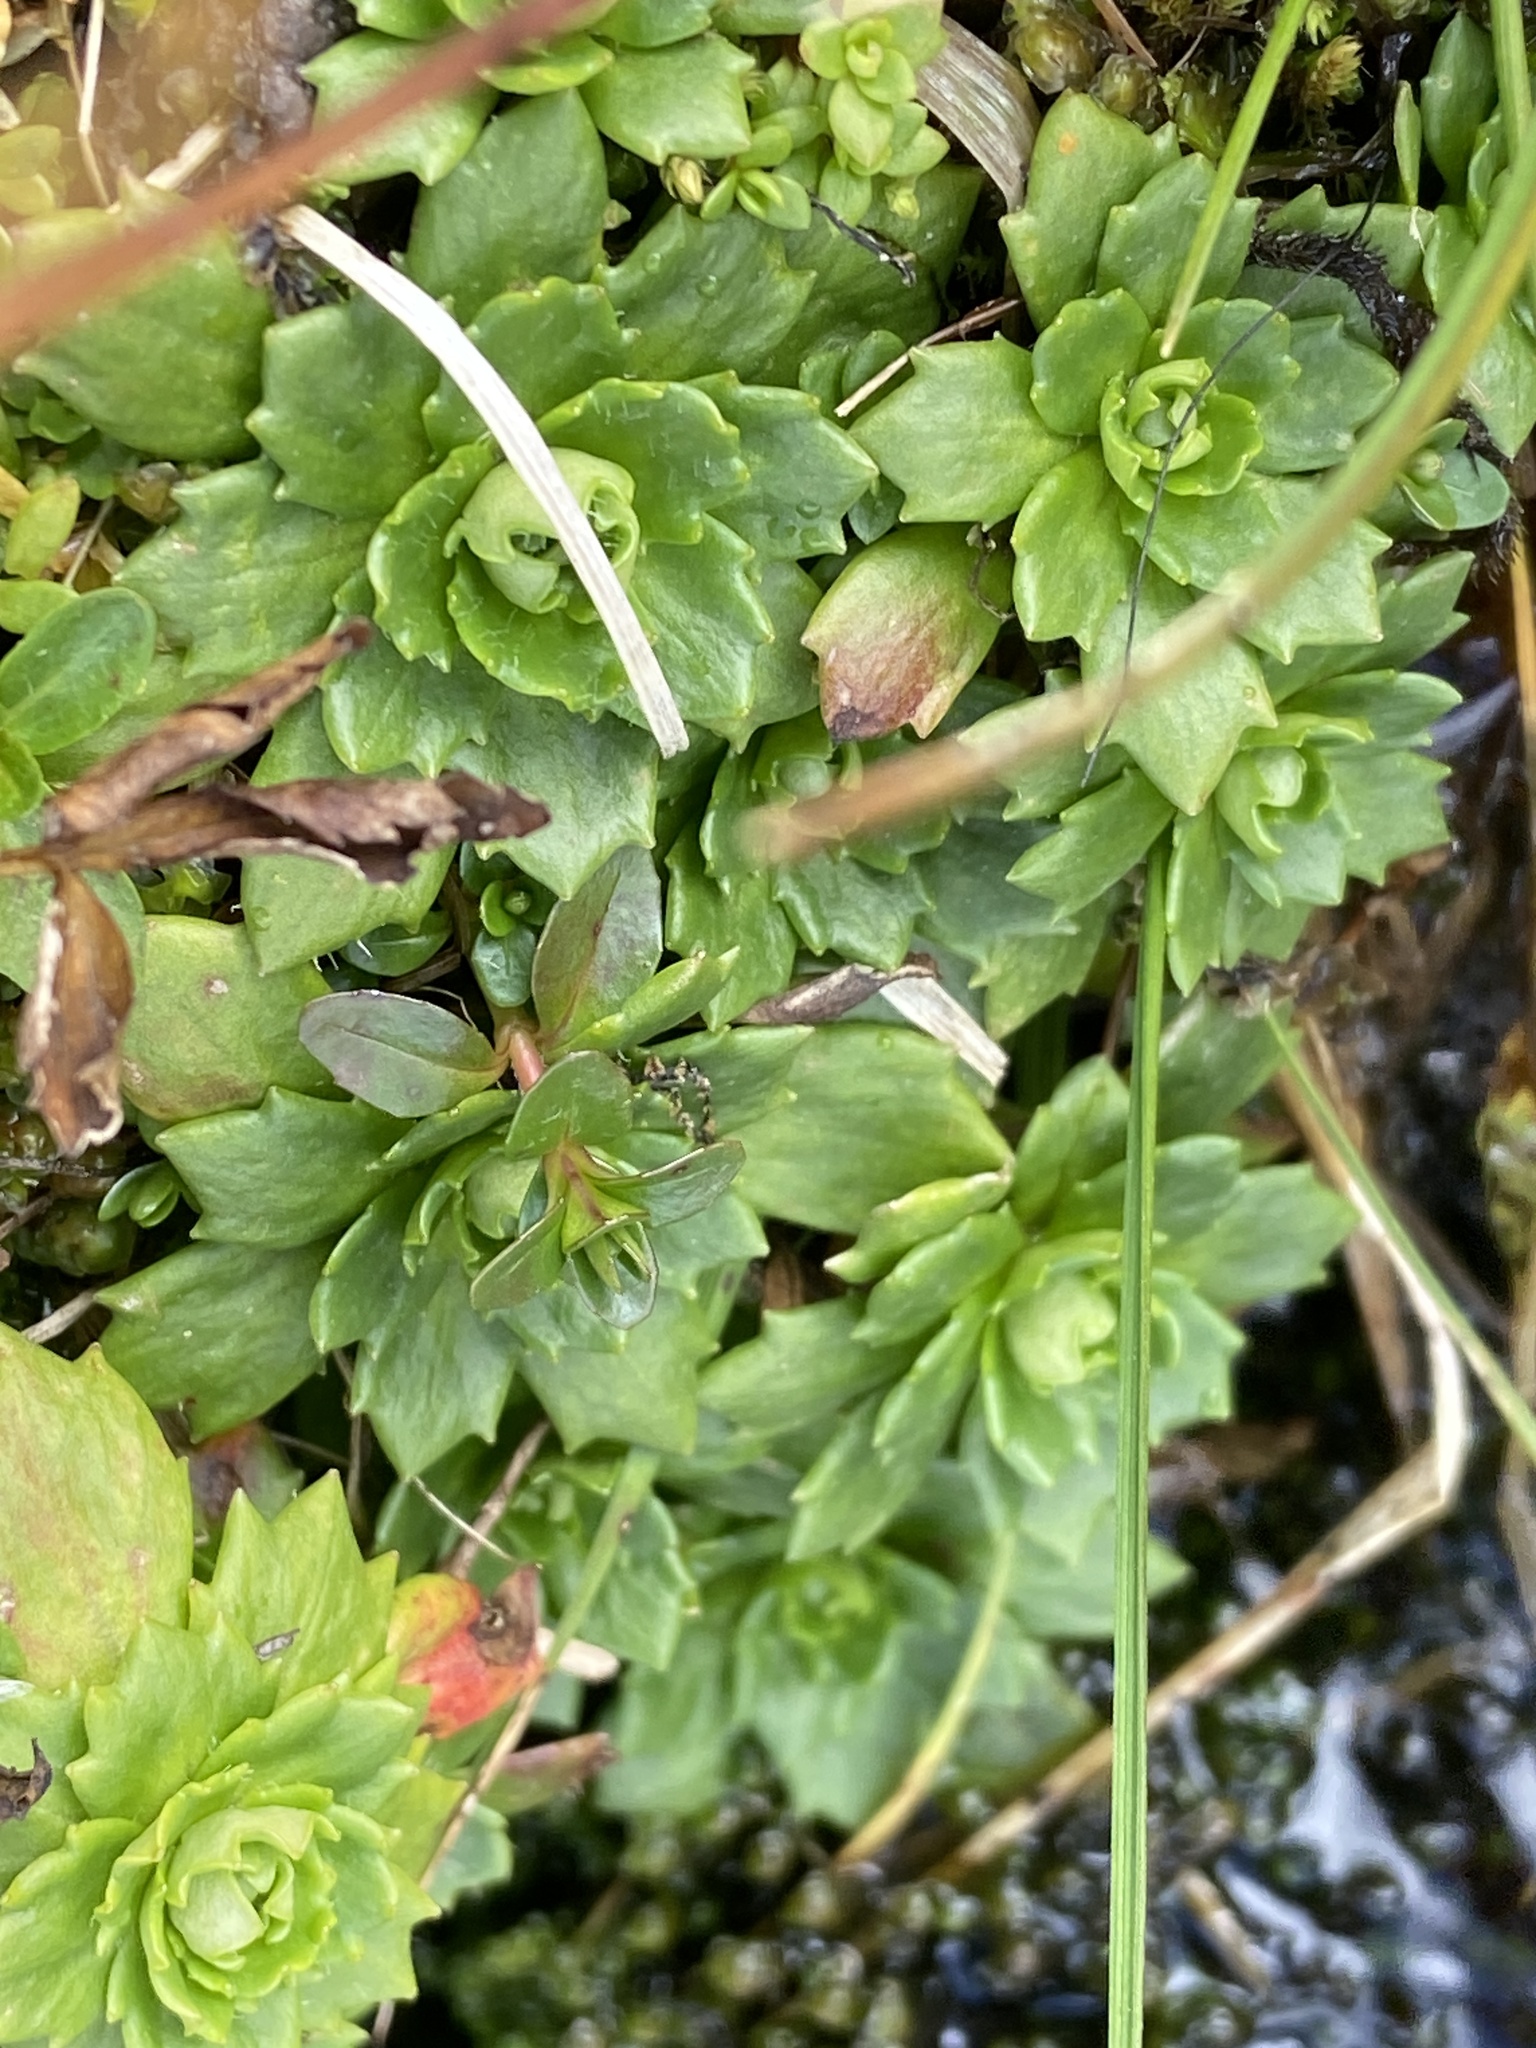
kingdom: Plantae
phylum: Tracheophyta
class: Magnoliopsida
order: Saxifragales
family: Saxifragaceae
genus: Micranthes
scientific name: Micranthes stellaris
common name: Starry saxifrage
